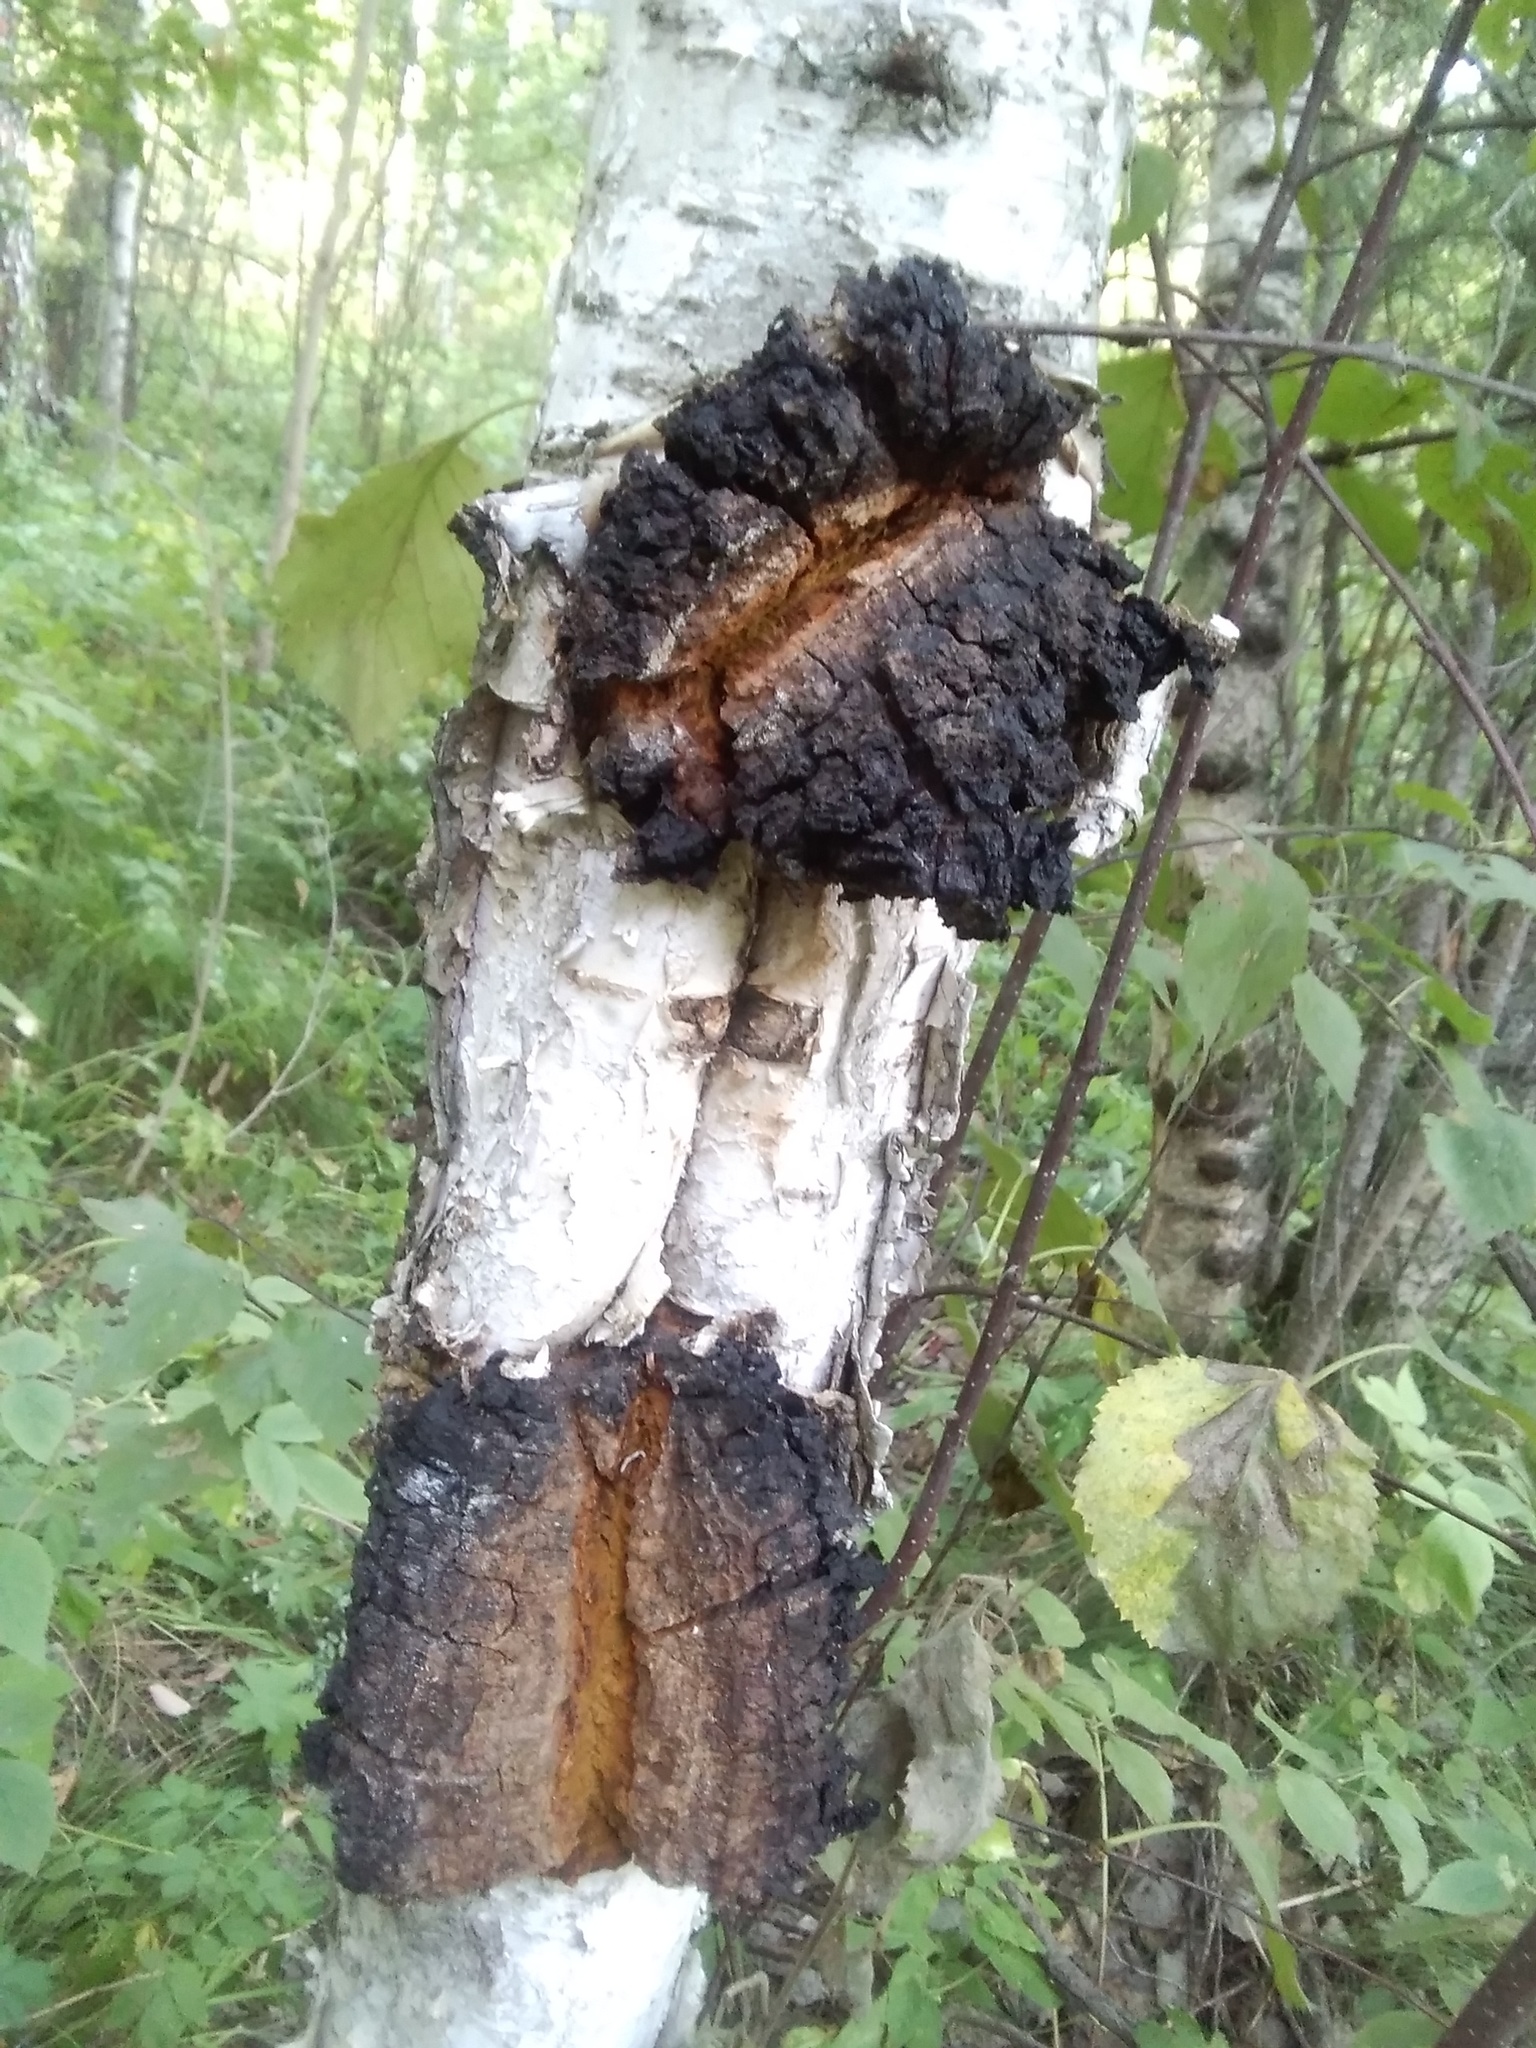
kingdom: Fungi
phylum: Basidiomycota
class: Agaricomycetes
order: Hymenochaetales
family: Hymenochaetaceae
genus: Inonotus
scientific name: Inonotus obliquus
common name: Chaga
